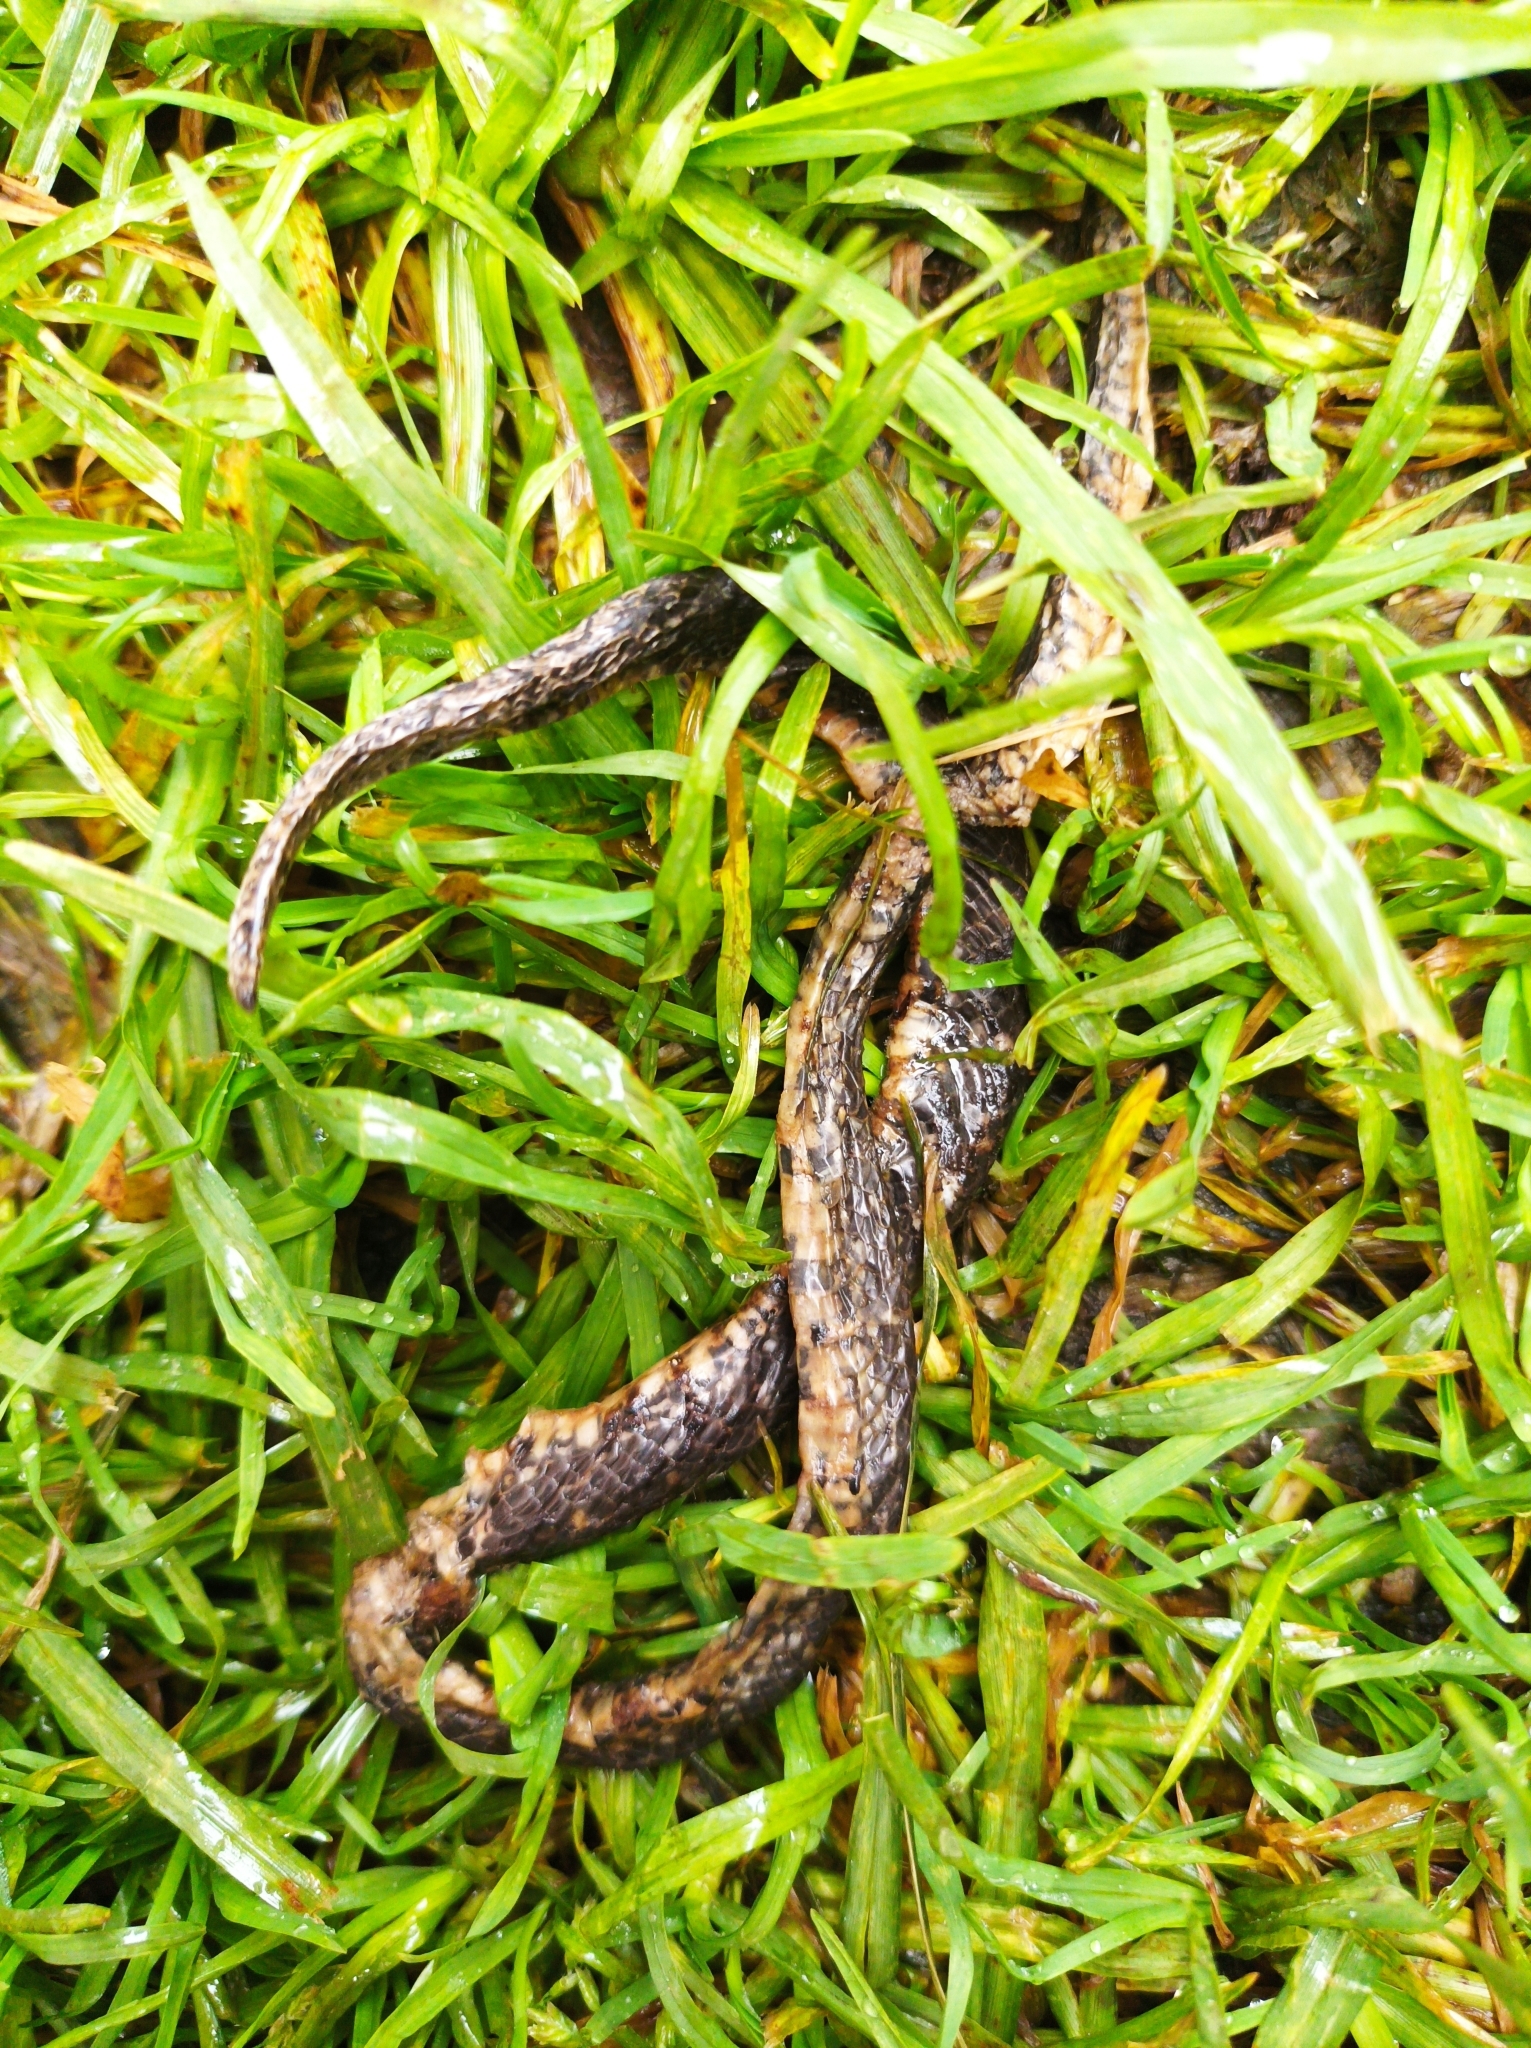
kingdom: Animalia
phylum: Chordata
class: Squamata
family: Colubridae
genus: Atractus
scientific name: Atractus crassicaudatus
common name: Thickhead ground snake
